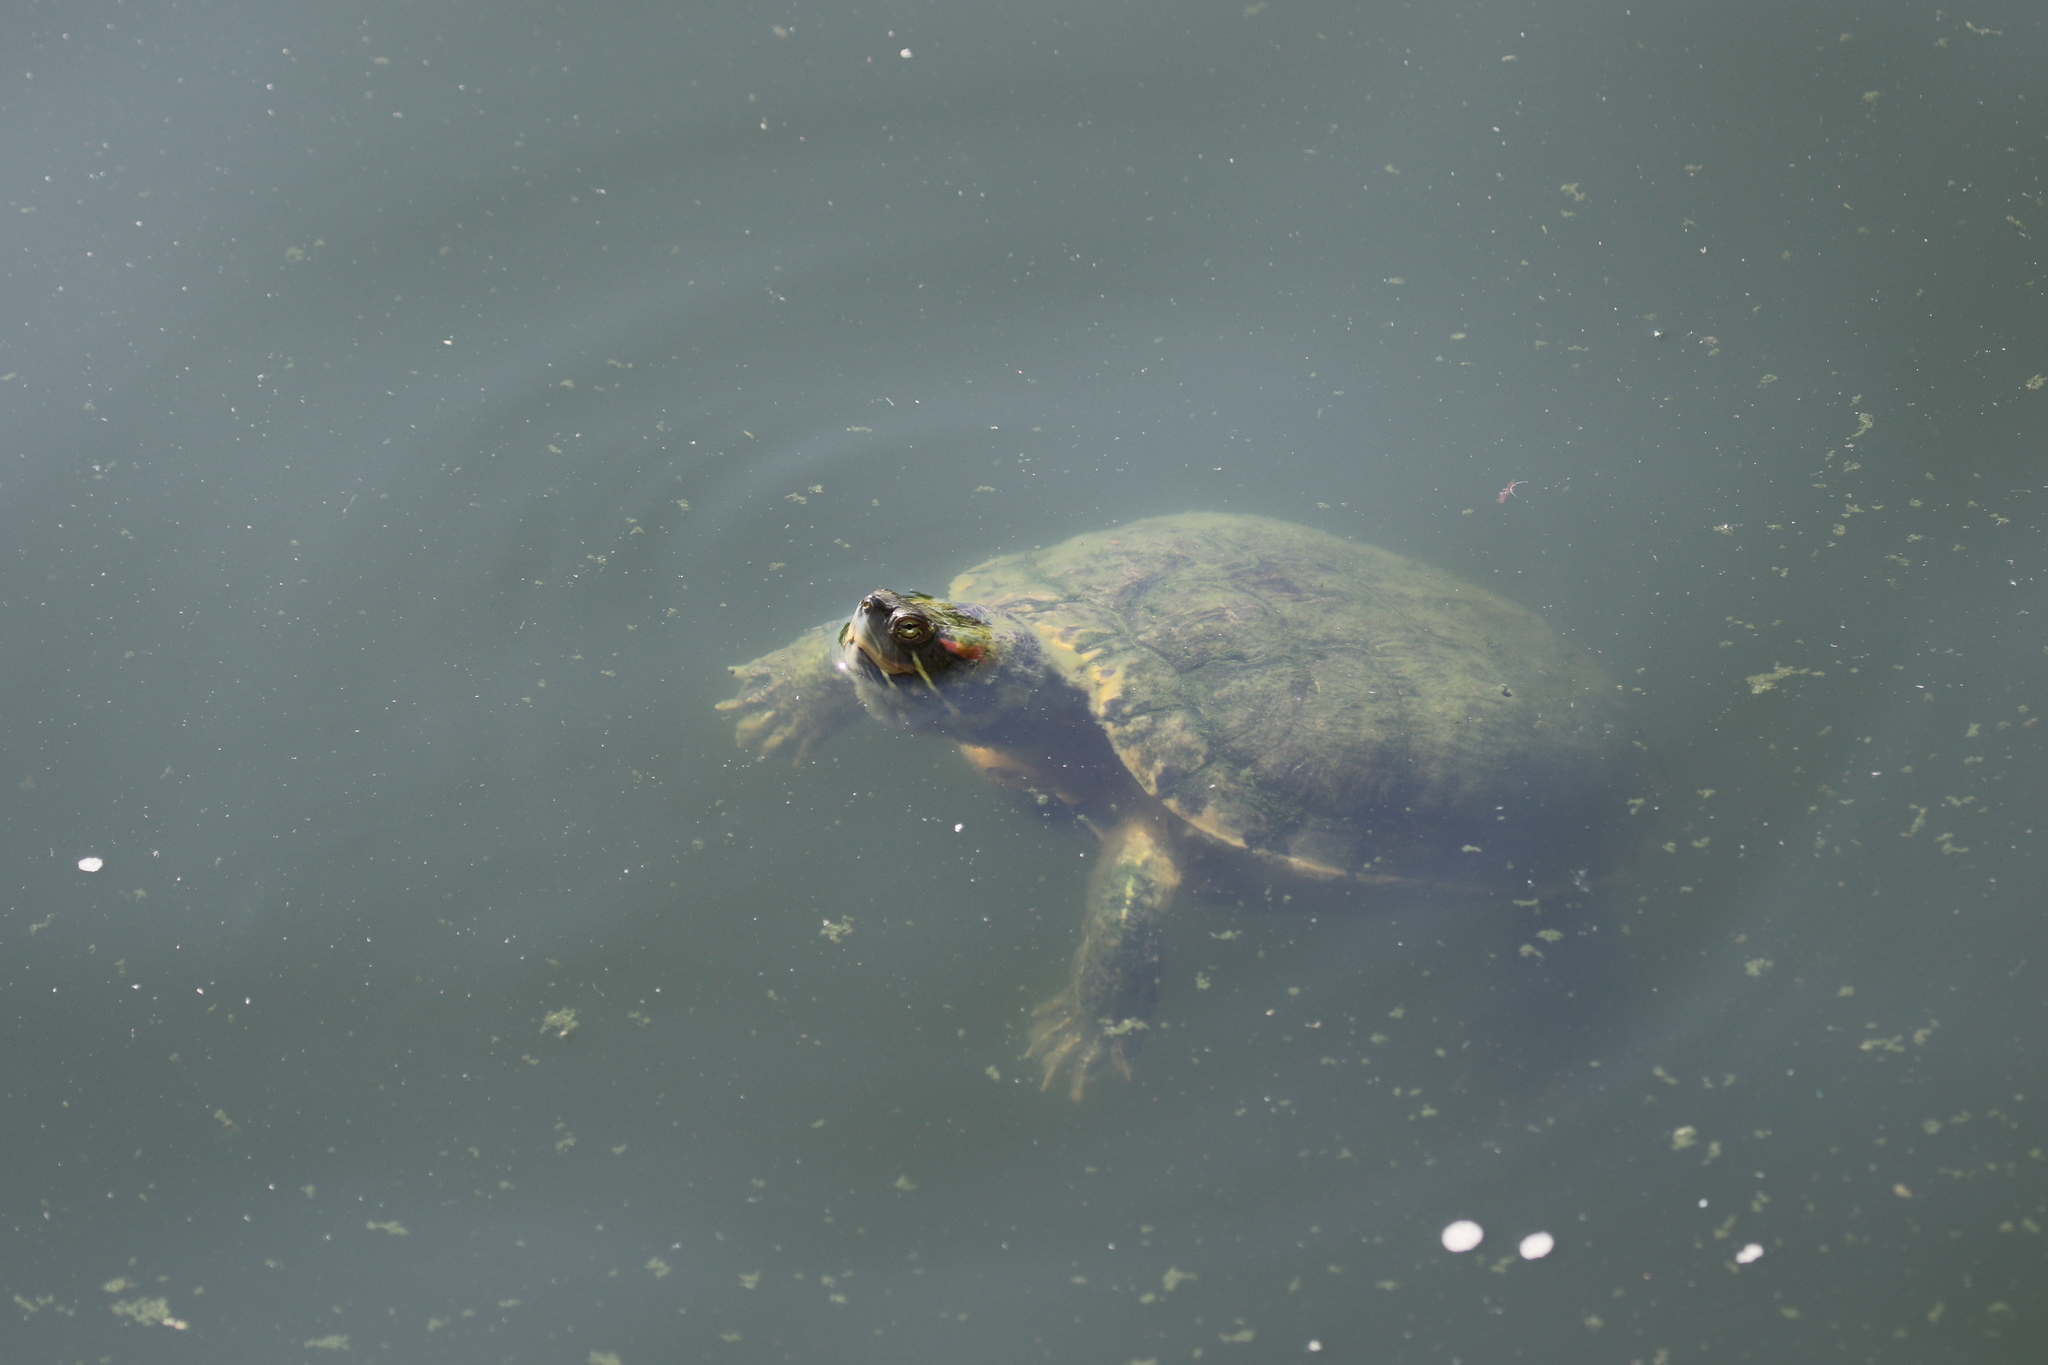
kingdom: Animalia
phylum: Chordata
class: Testudines
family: Emydidae
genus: Trachemys
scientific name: Trachemys scripta
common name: Slider
